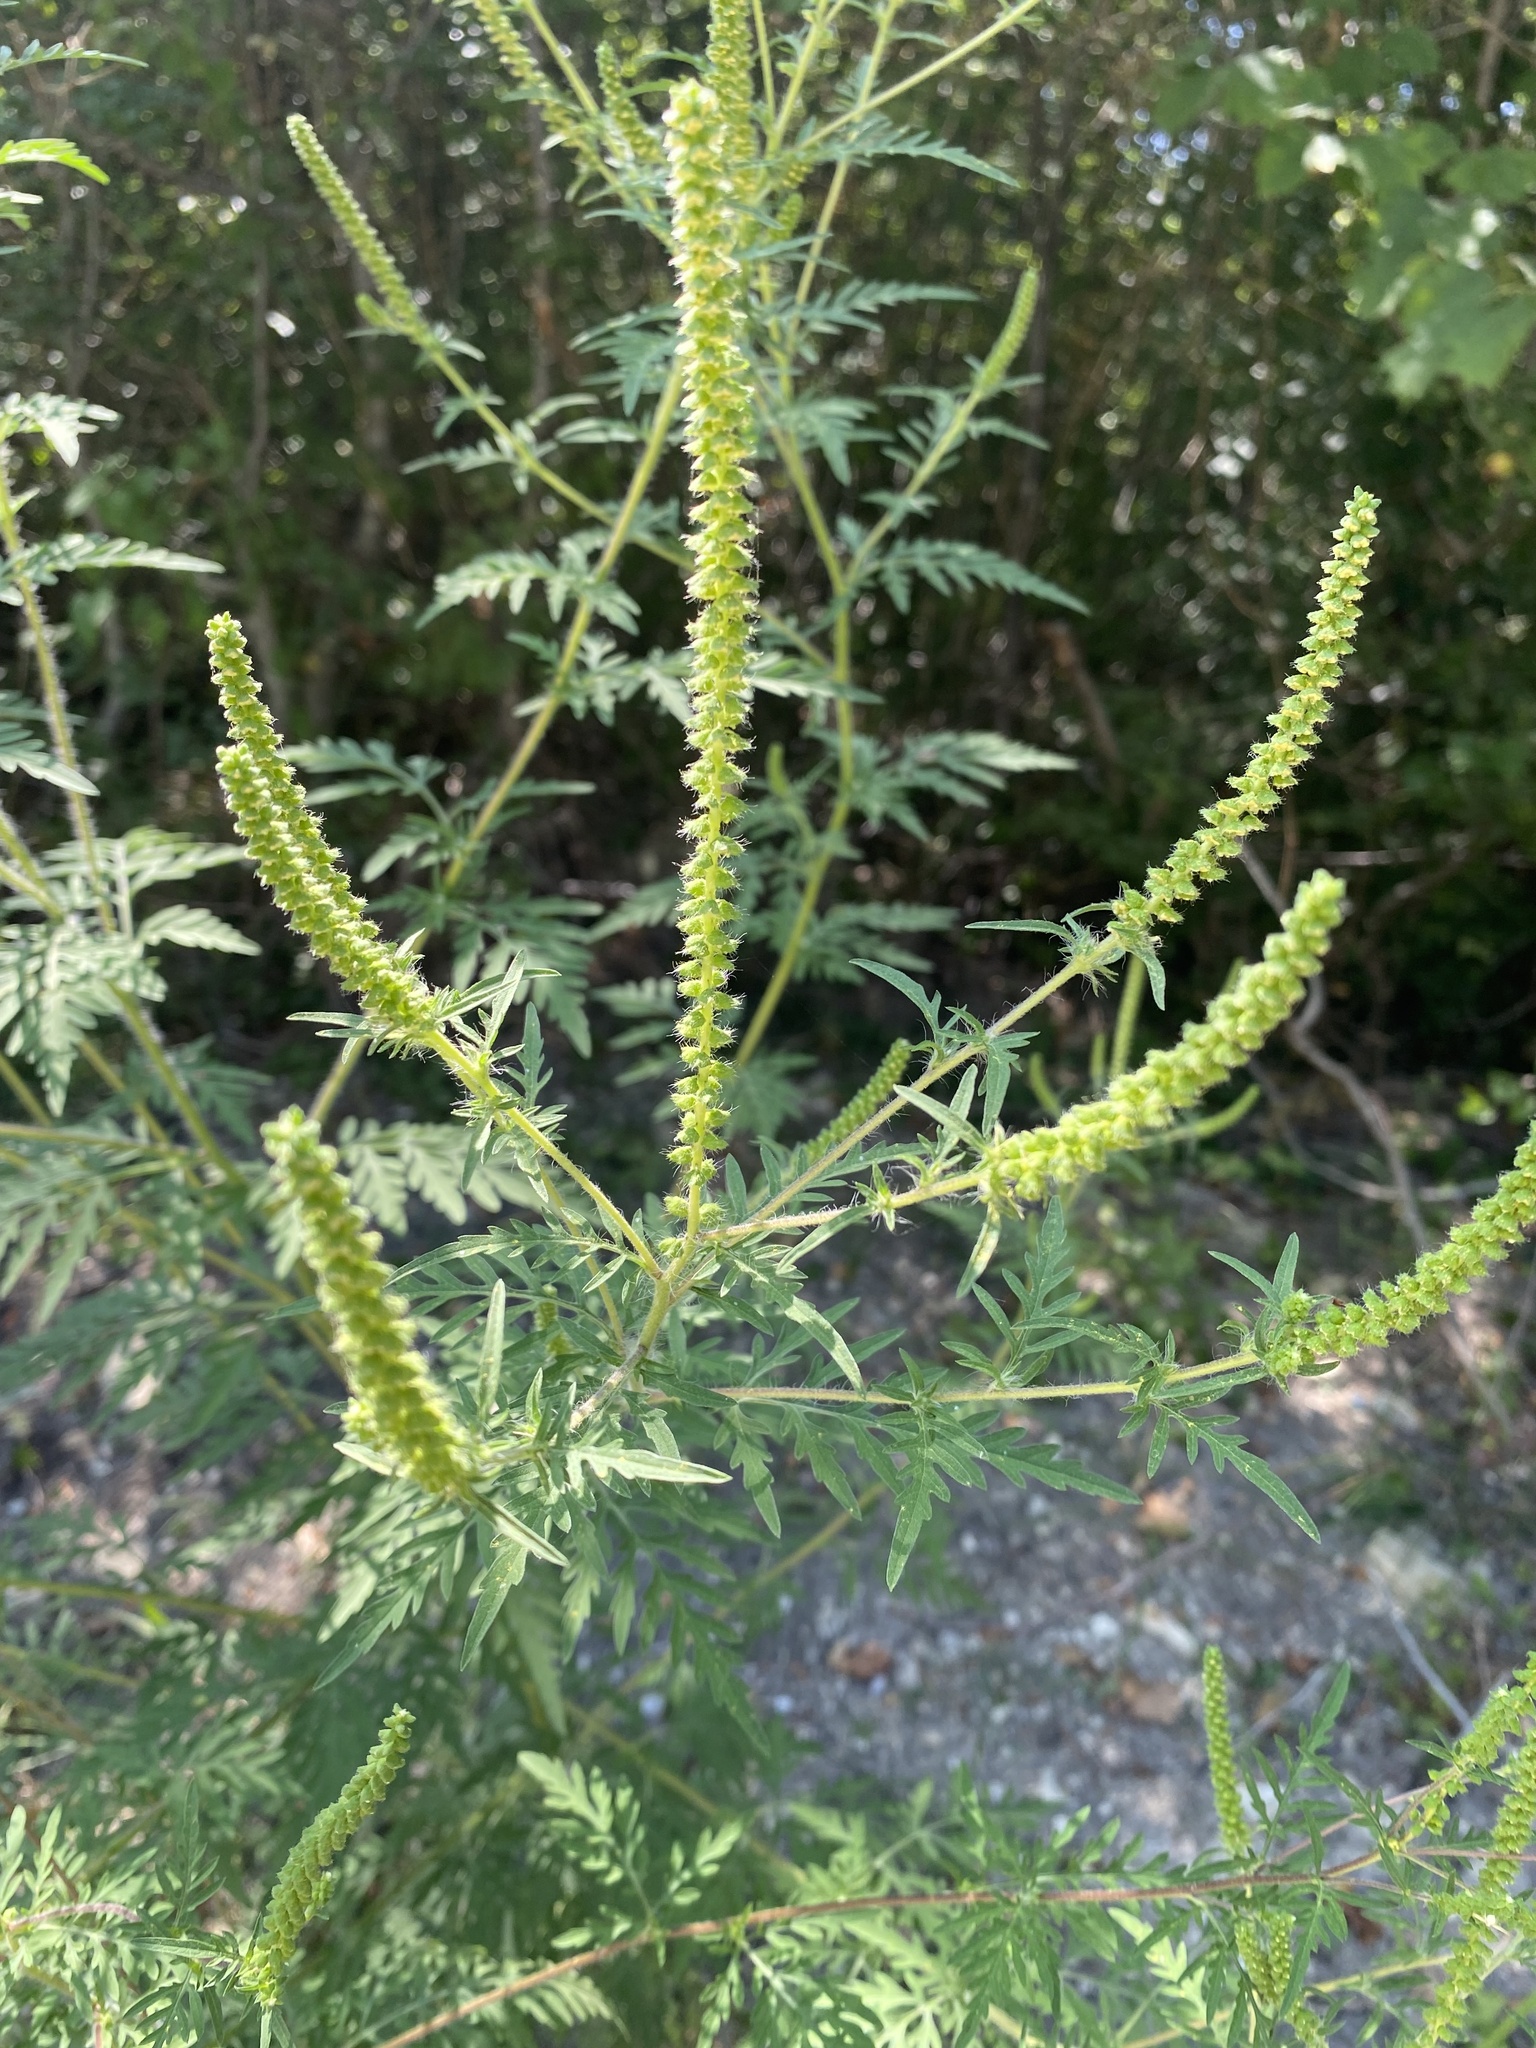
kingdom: Plantae
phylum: Tracheophyta
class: Magnoliopsida
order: Asterales
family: Asteraceae
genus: Ambrosia
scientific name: Ambrosia artemisiifolia
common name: Annual ragweed
